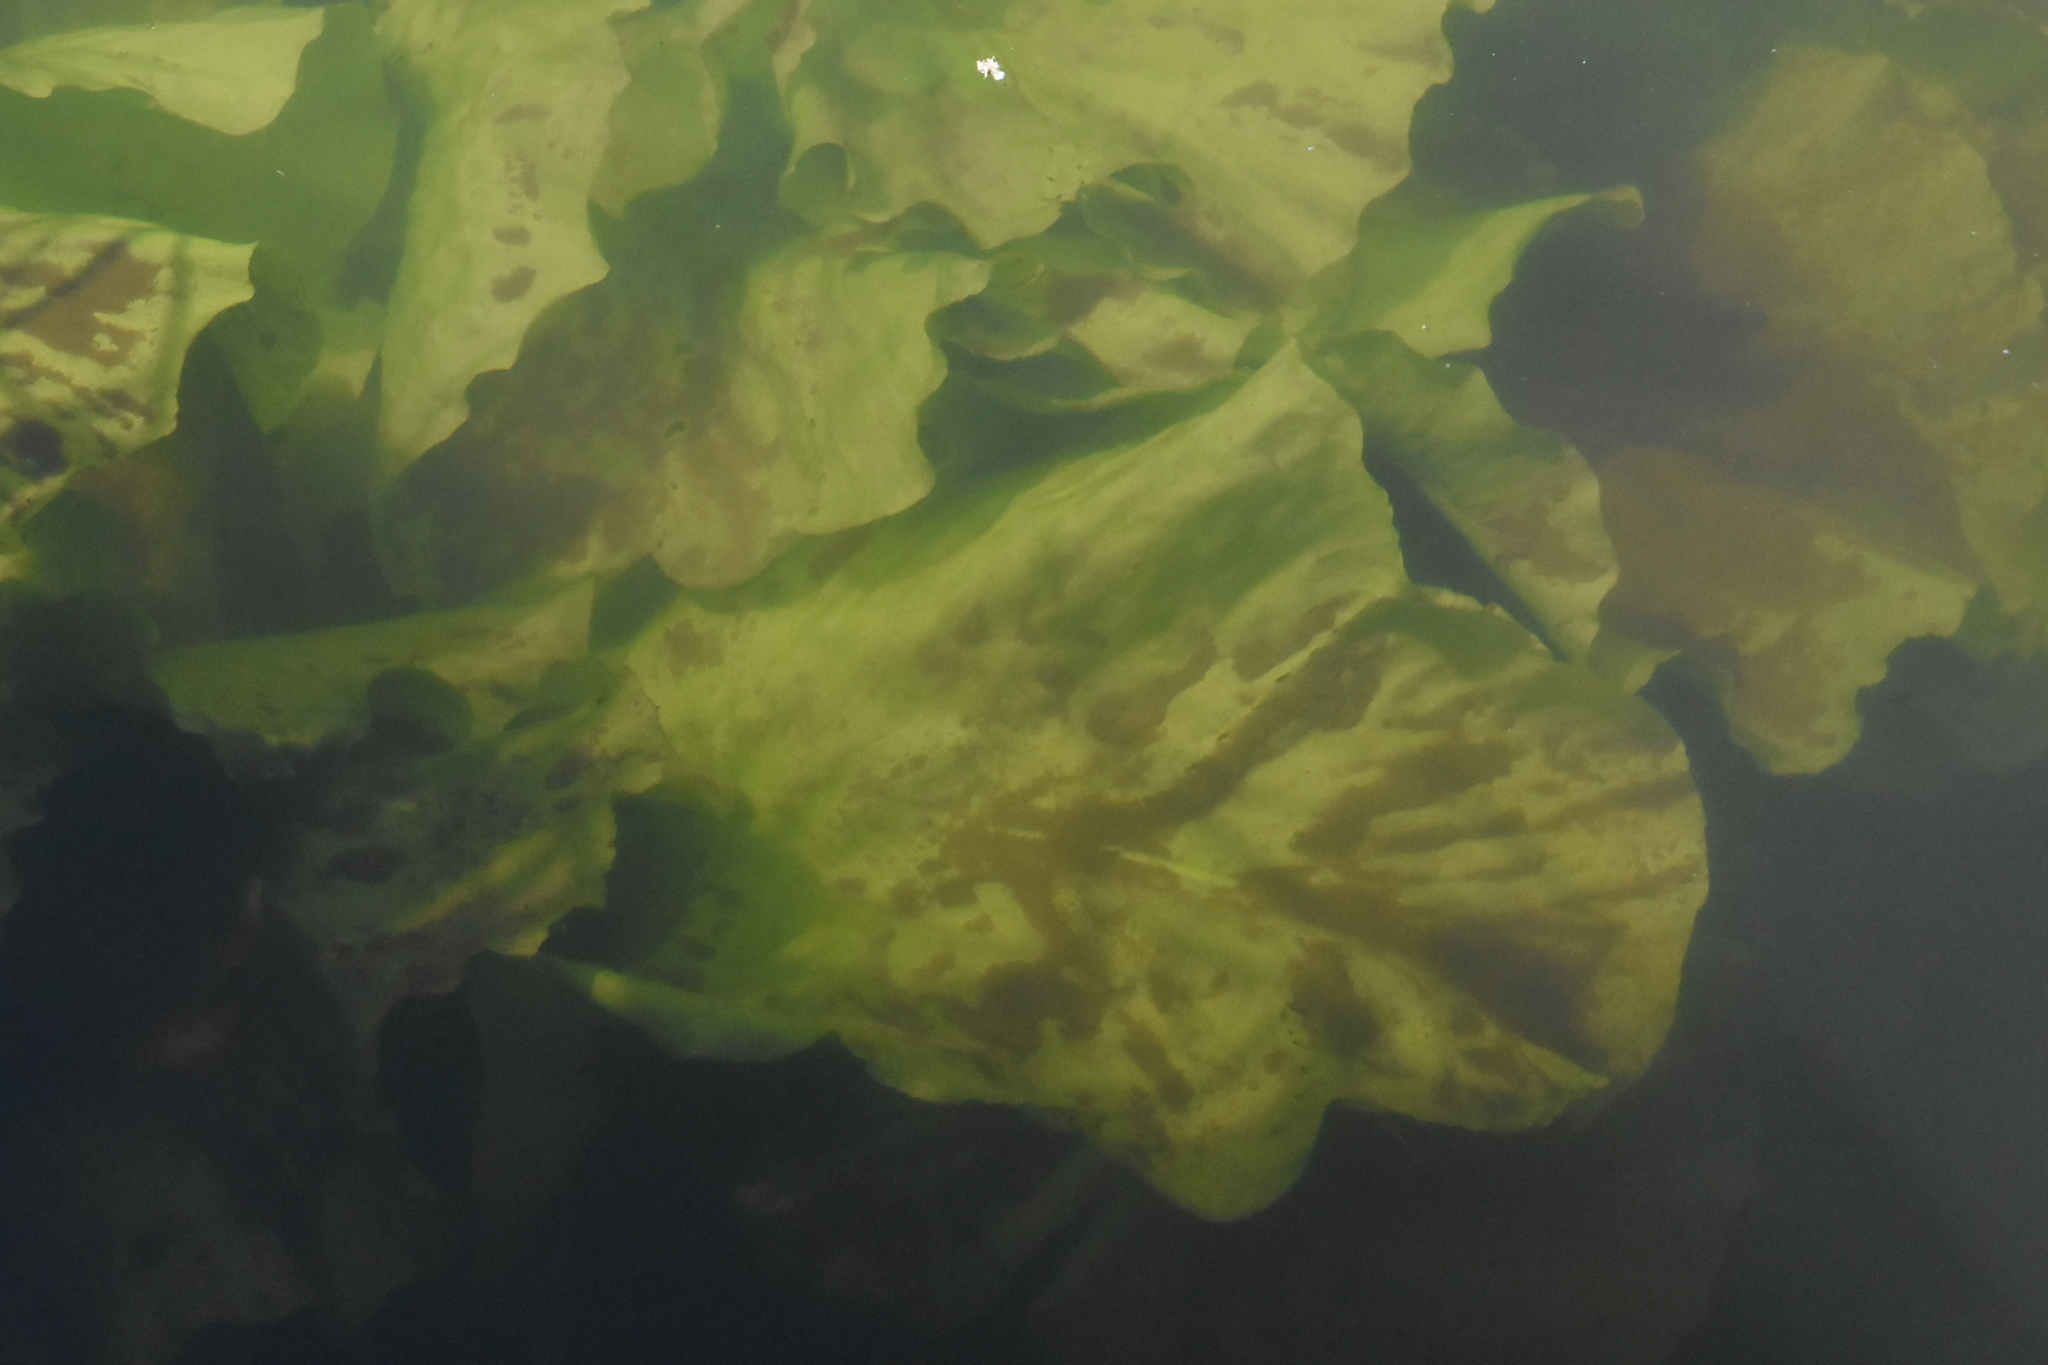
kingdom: Plantae
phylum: Tracheophyta
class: Magnoliopsida
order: Nymphaeales
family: Nymphaeaceae
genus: Nuphar
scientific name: Nuphar lutea
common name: Yellow water-lily
